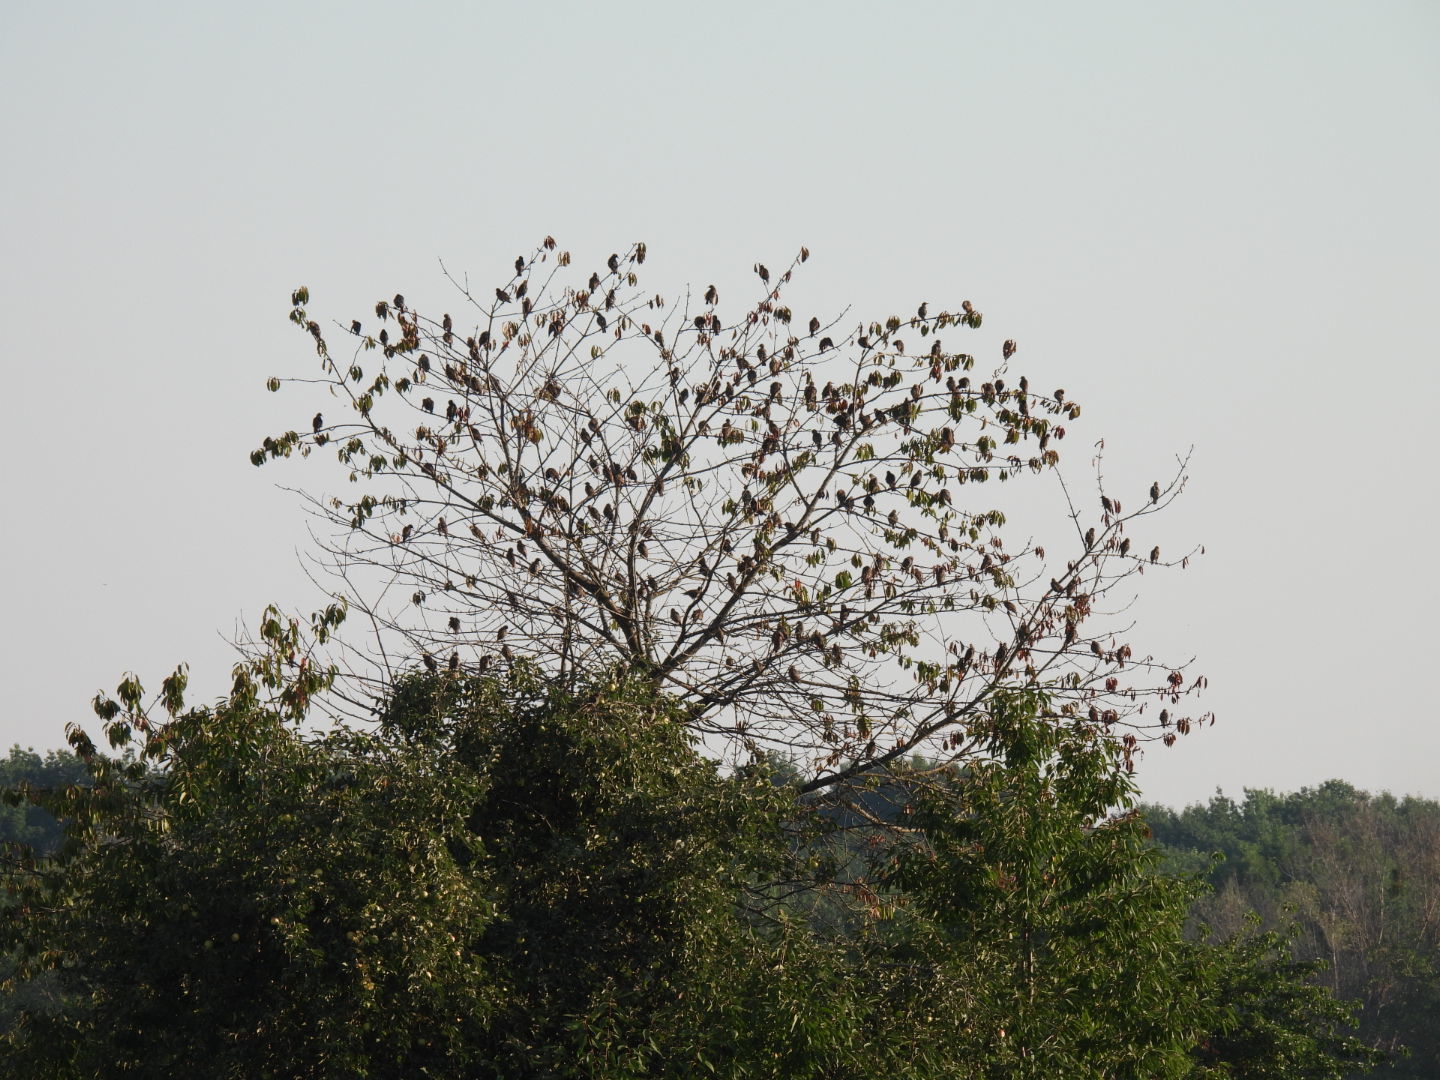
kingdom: Animalia
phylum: Chordata
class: Aves
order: Passeriformes
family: Sturnidae
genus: Sturnus
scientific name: Sturnus vulgaris
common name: Common starling
